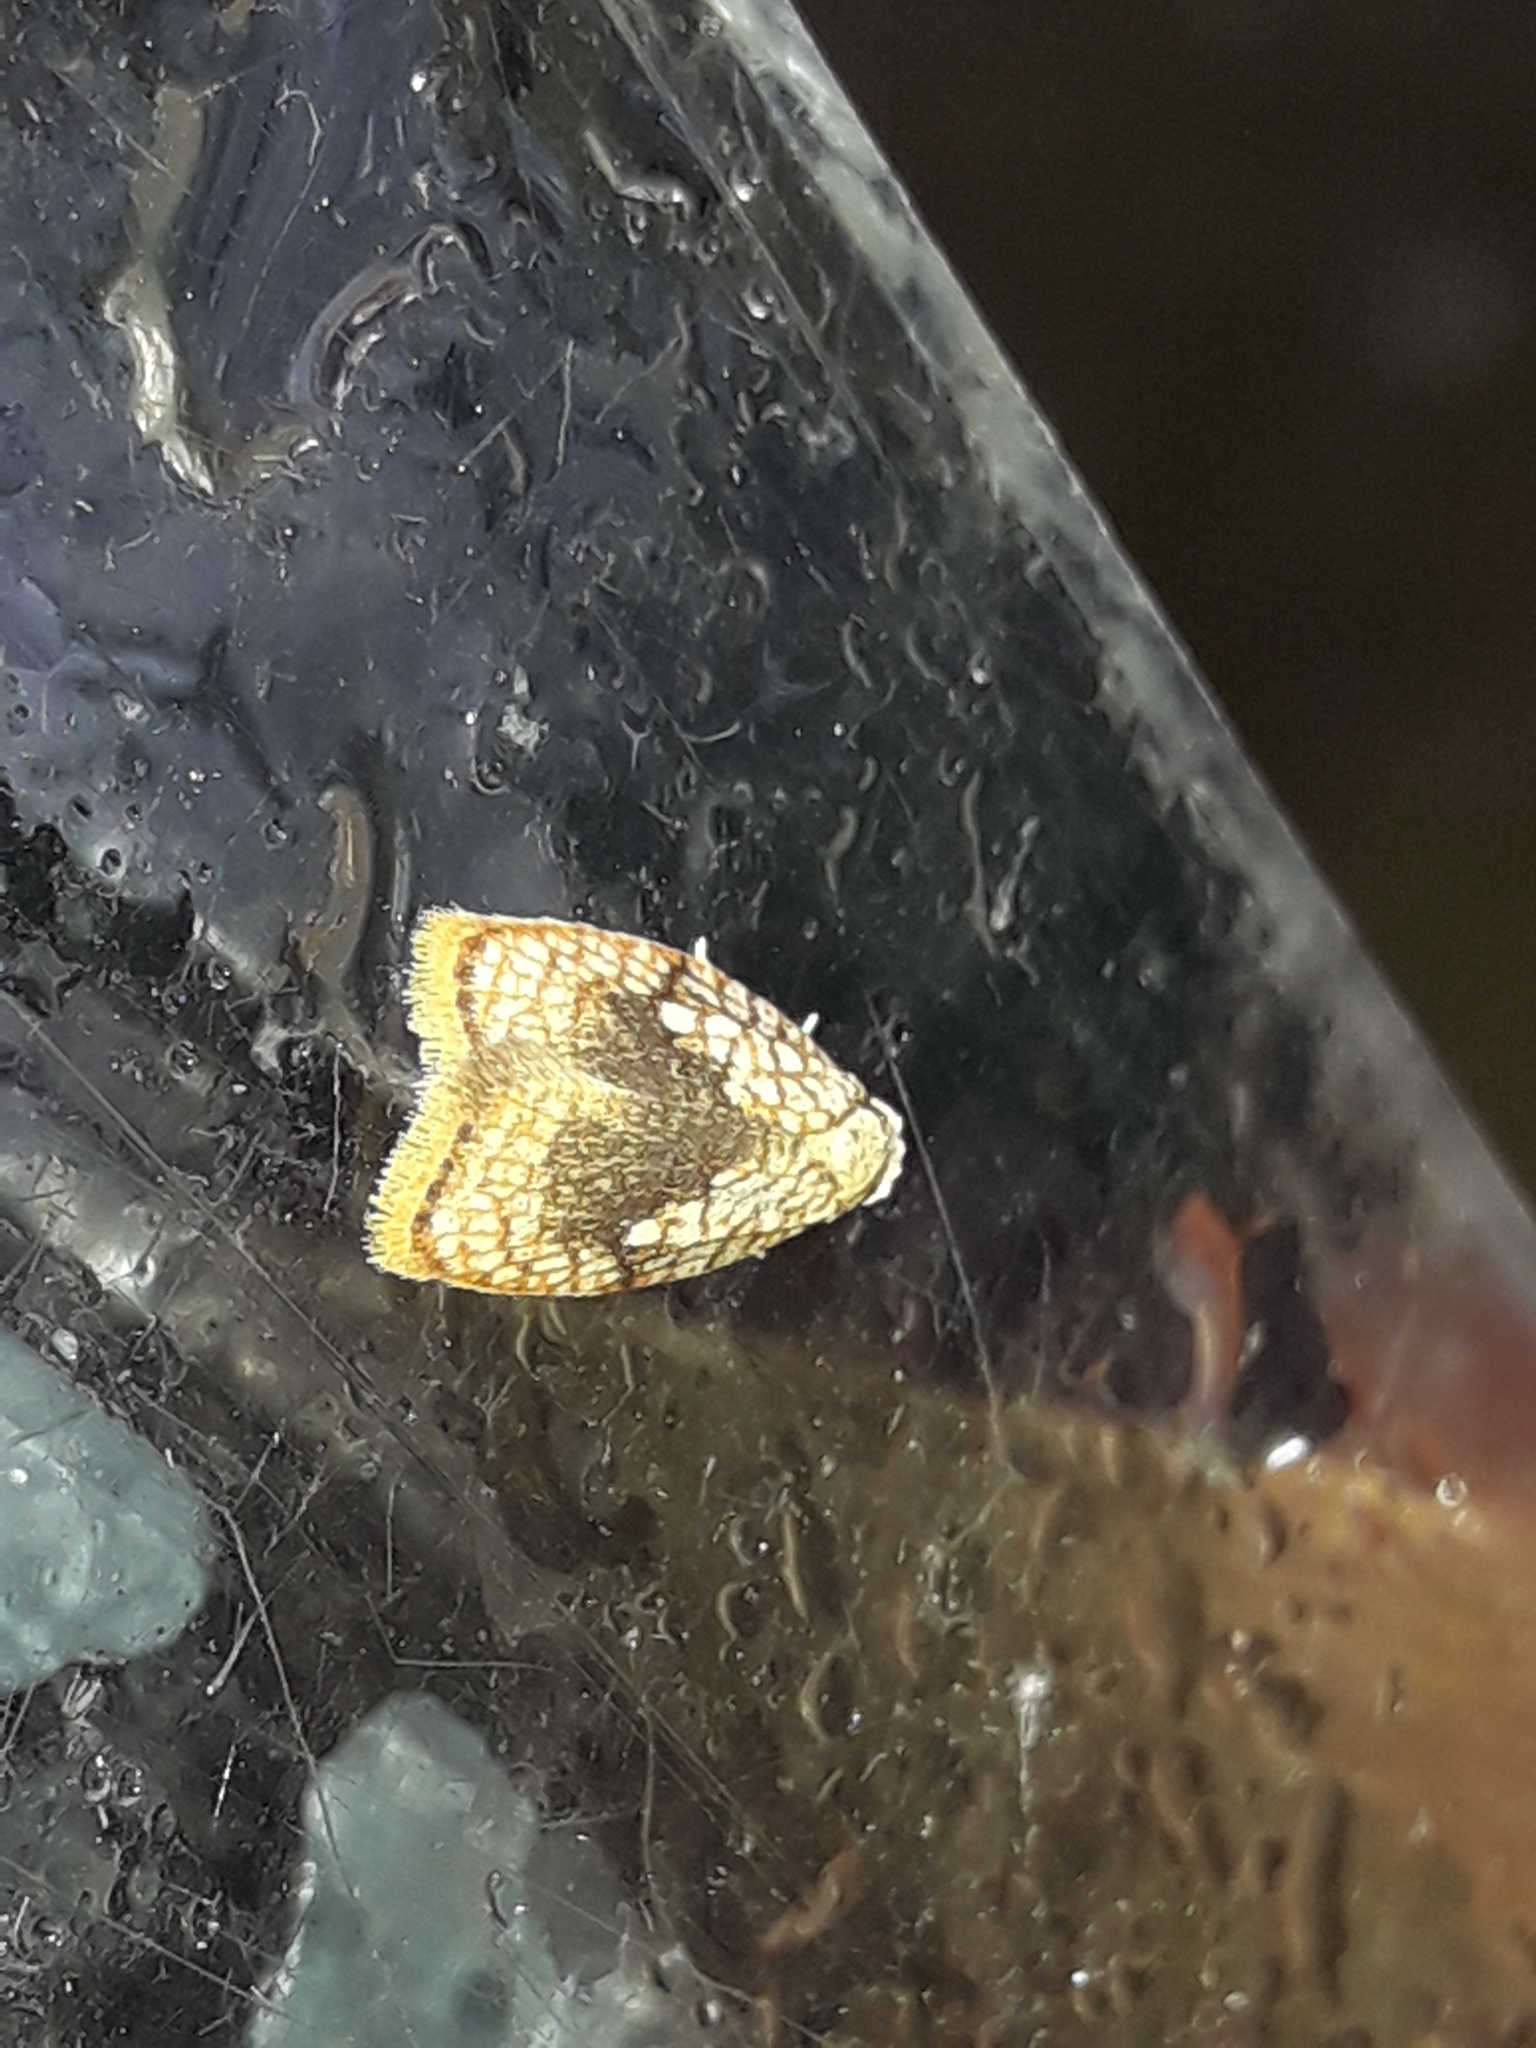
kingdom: Animalia
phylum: Arthropoda
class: Insecta
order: Lepidoptera
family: Tortricidae
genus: Acleris
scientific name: Acleris forsskaleana
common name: Maple button
